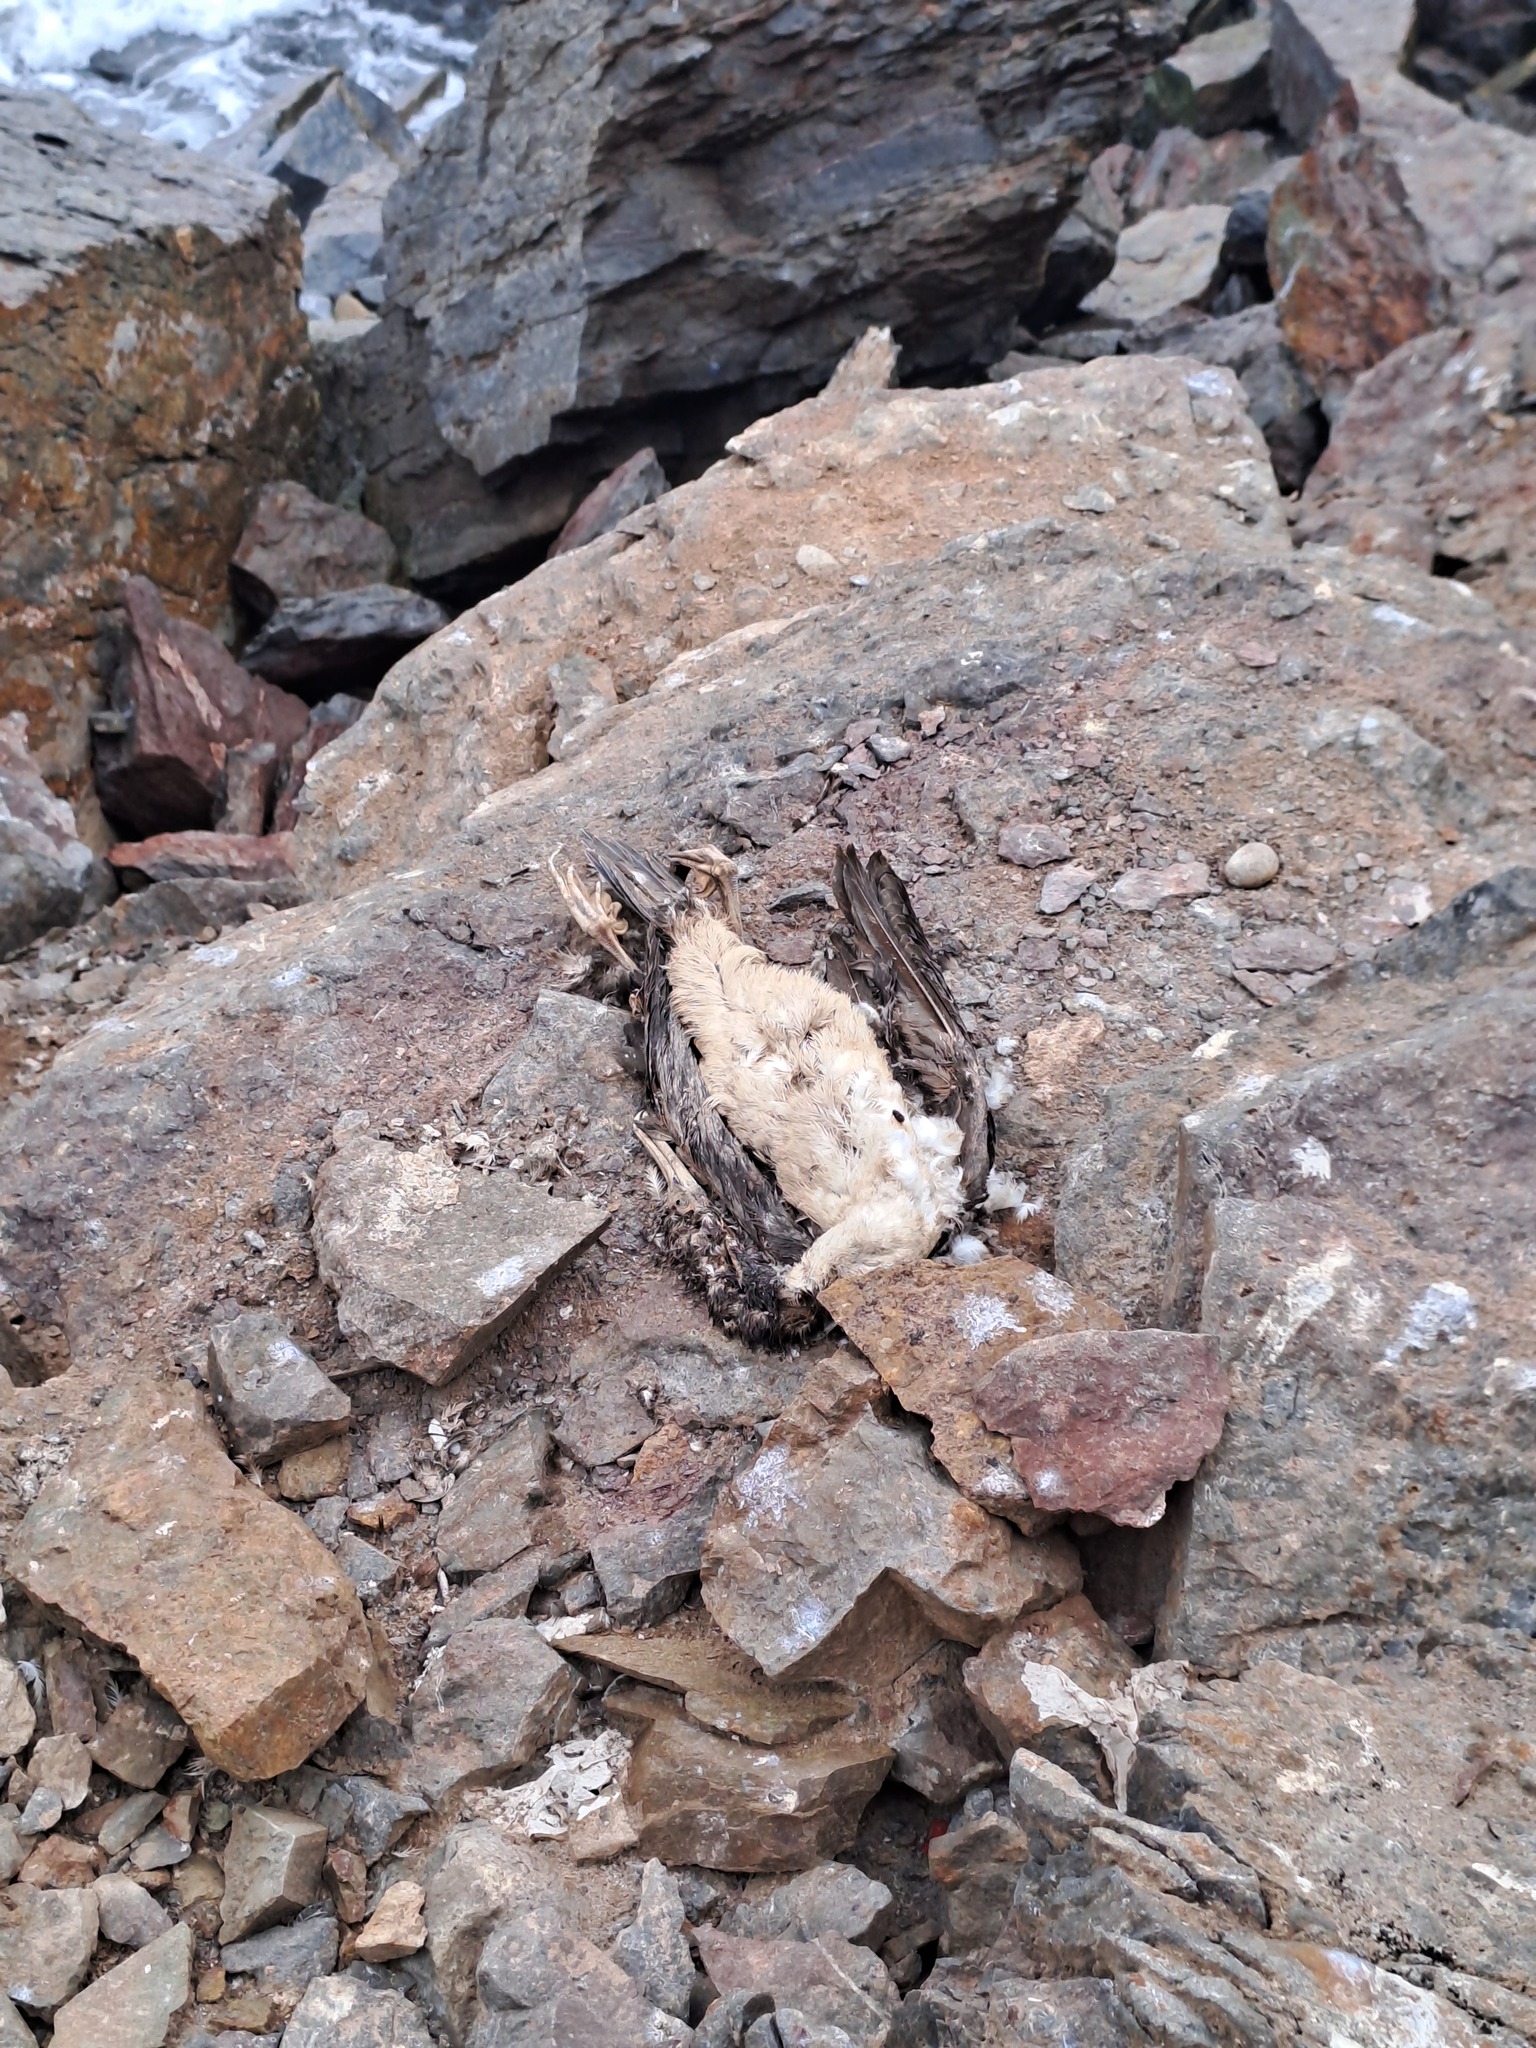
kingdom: Animalia
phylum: Chordata
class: Aves
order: Suliformes
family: Phalacrocoracidae
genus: Leucocarbo
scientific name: Leucocarbo bougainvillii
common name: Guanay cormorant
